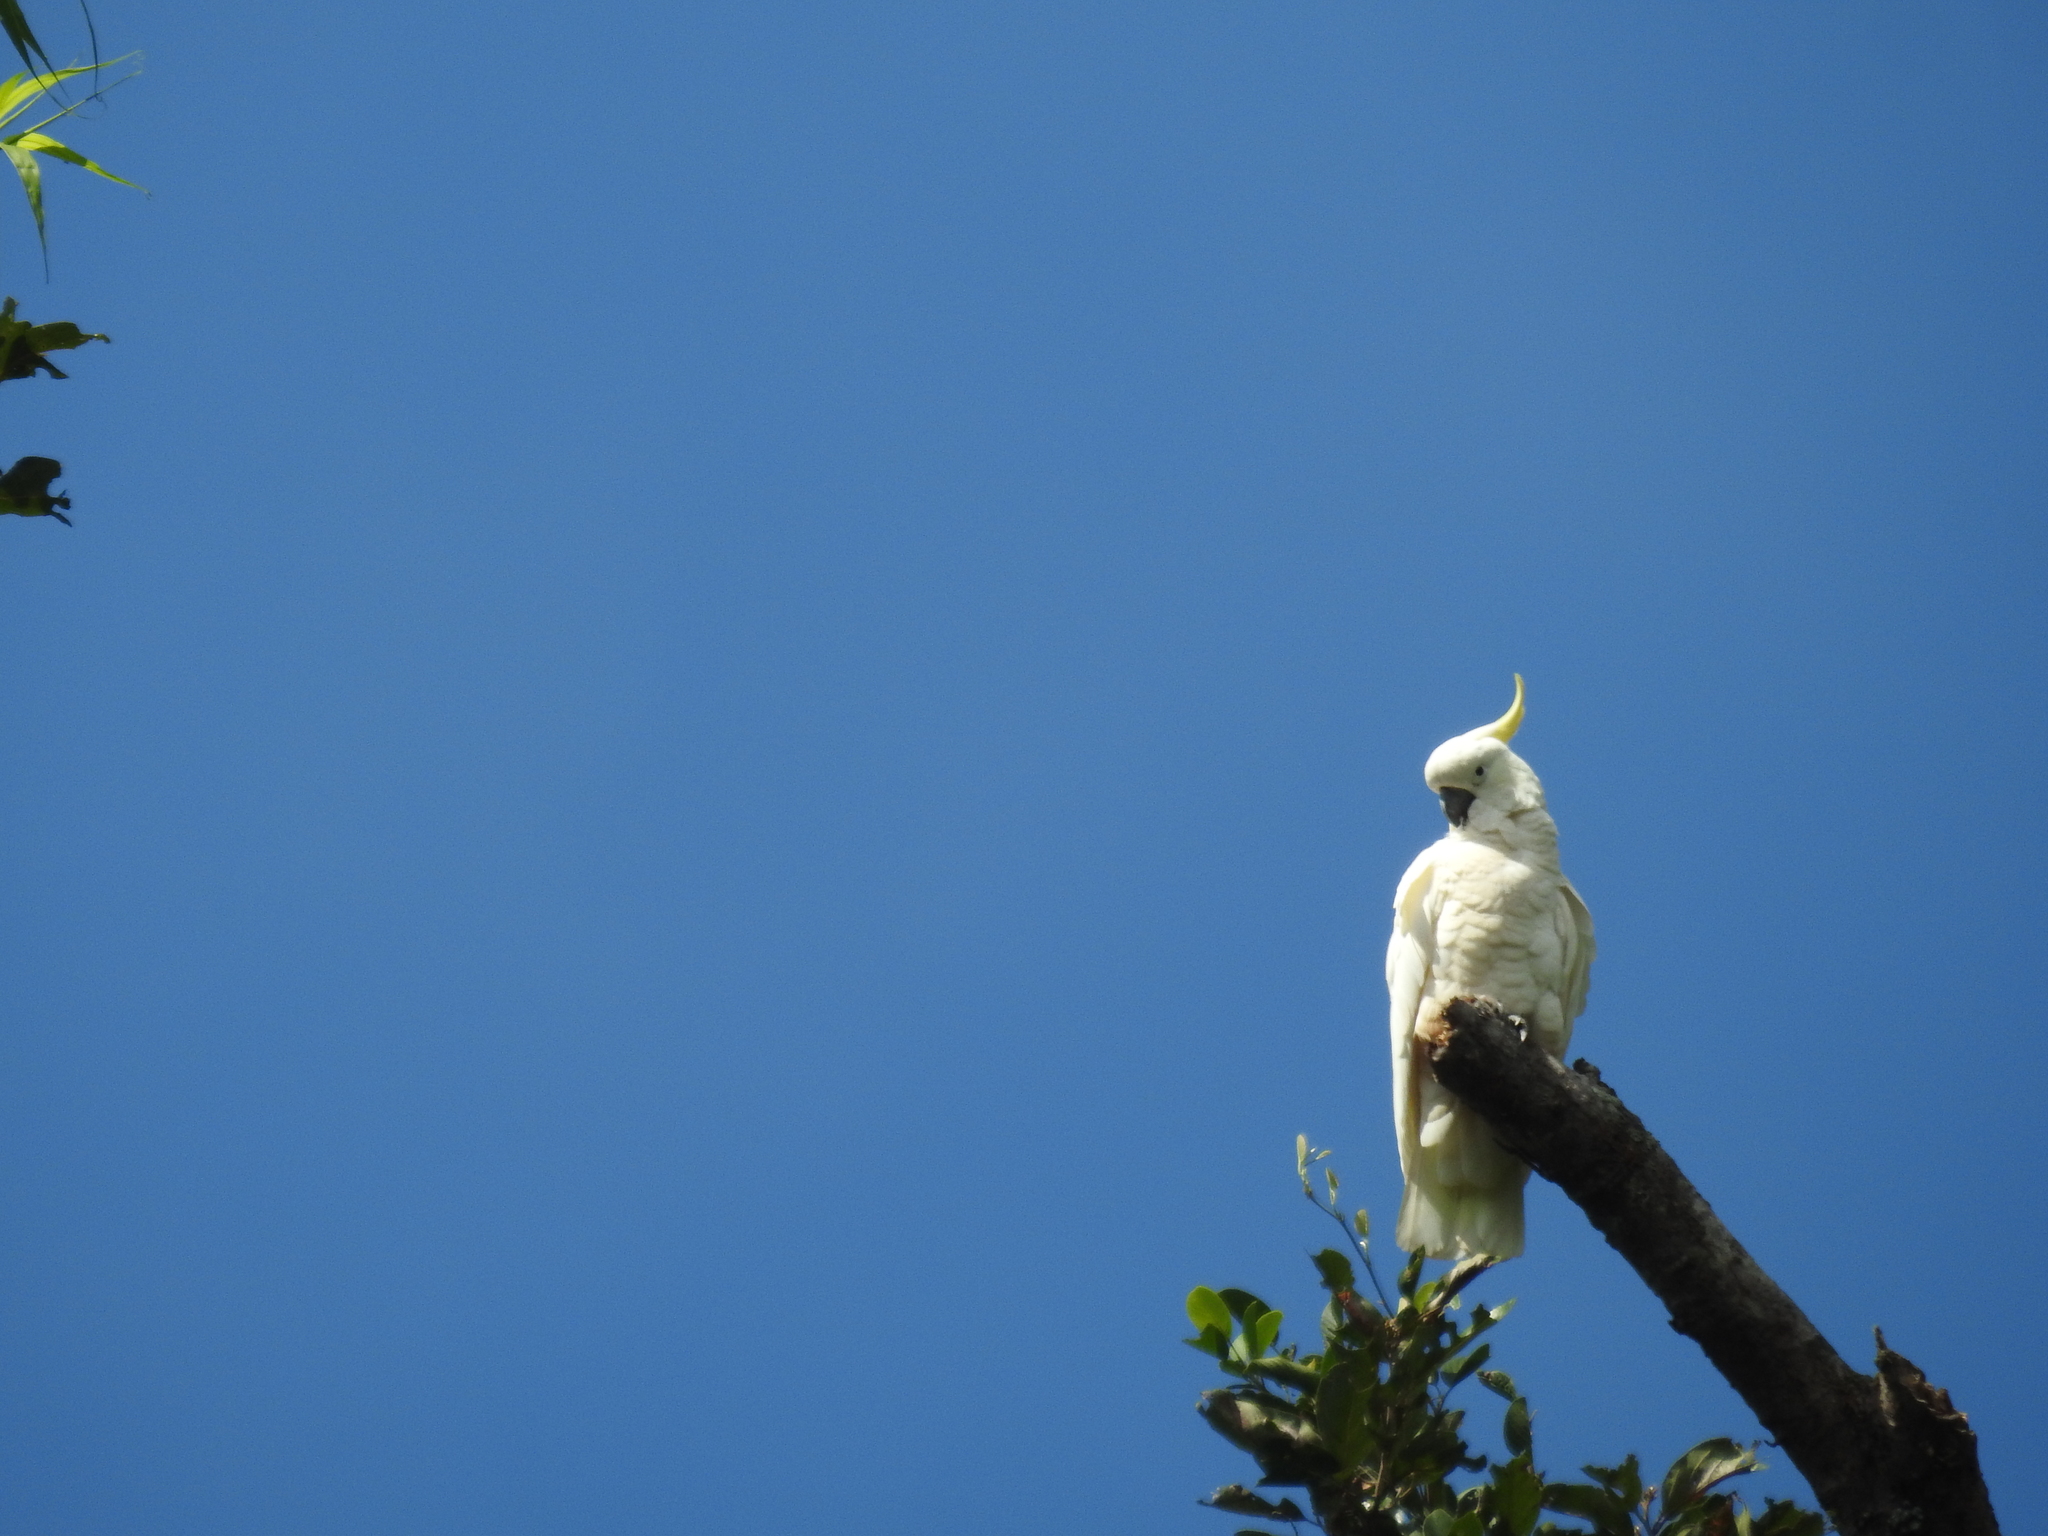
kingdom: Animalia
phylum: Chordata
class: Aves
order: Psittaciformes
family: Psittacidae
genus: Cacatua
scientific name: Cacatua galerita
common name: Sulphur-crested cockatoo
